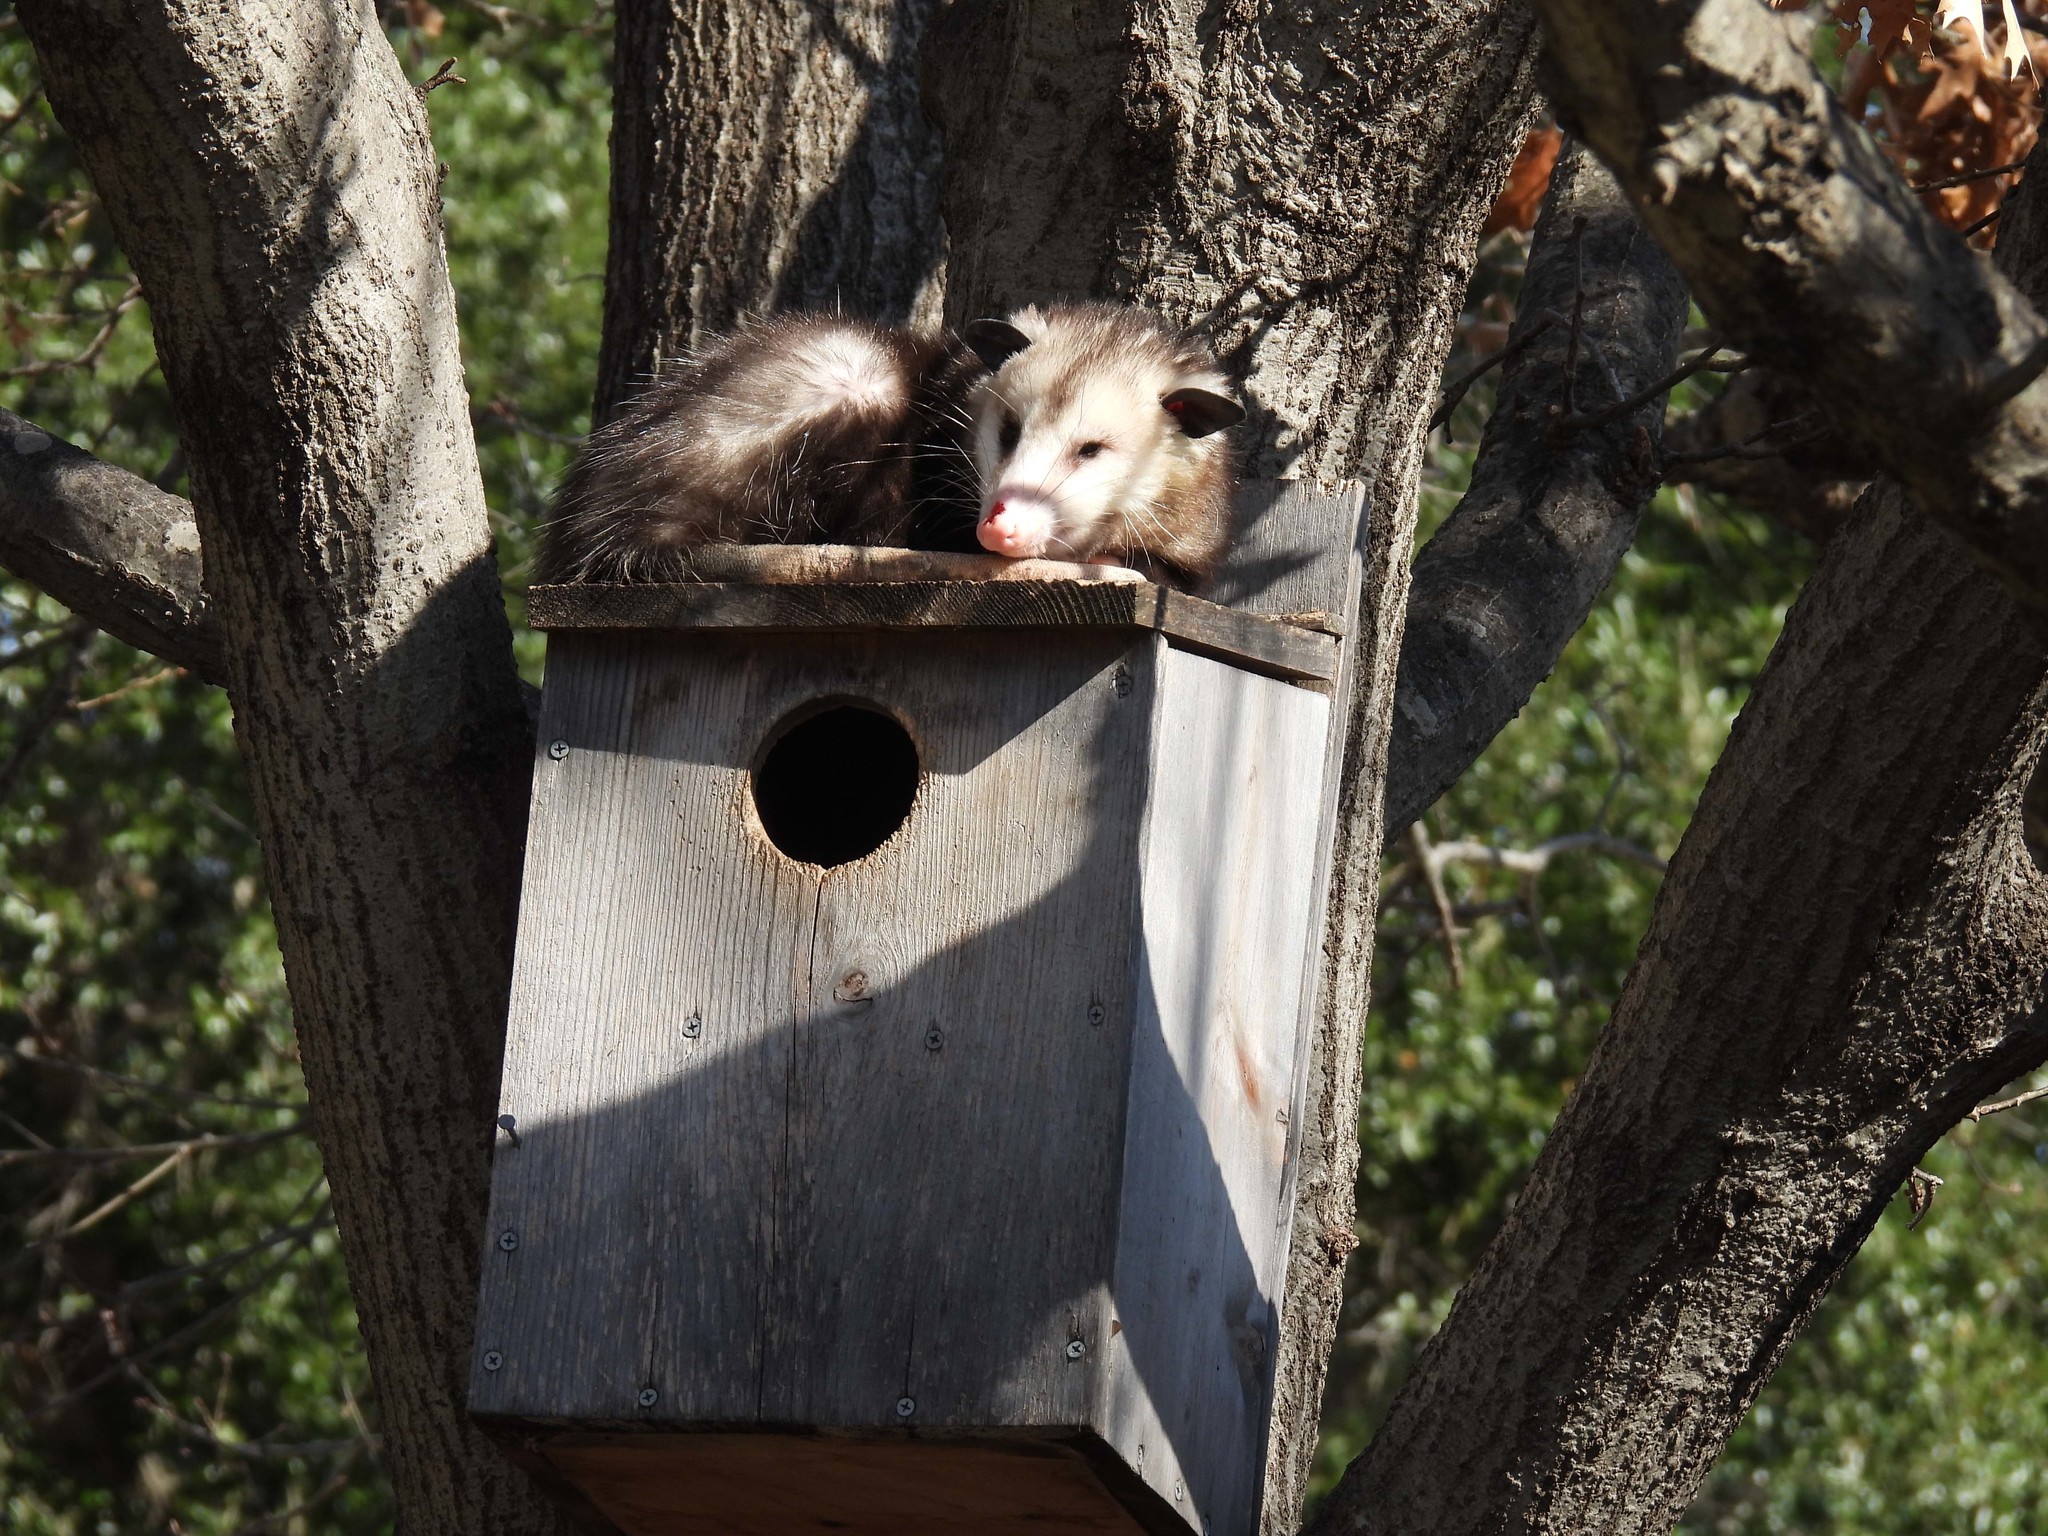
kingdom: Animalia
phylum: Chordata
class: Mammalia
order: Didelphimorphia
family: Didelphidae
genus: Didelphis
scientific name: Didelphis virginiana
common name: Virginia opossum
